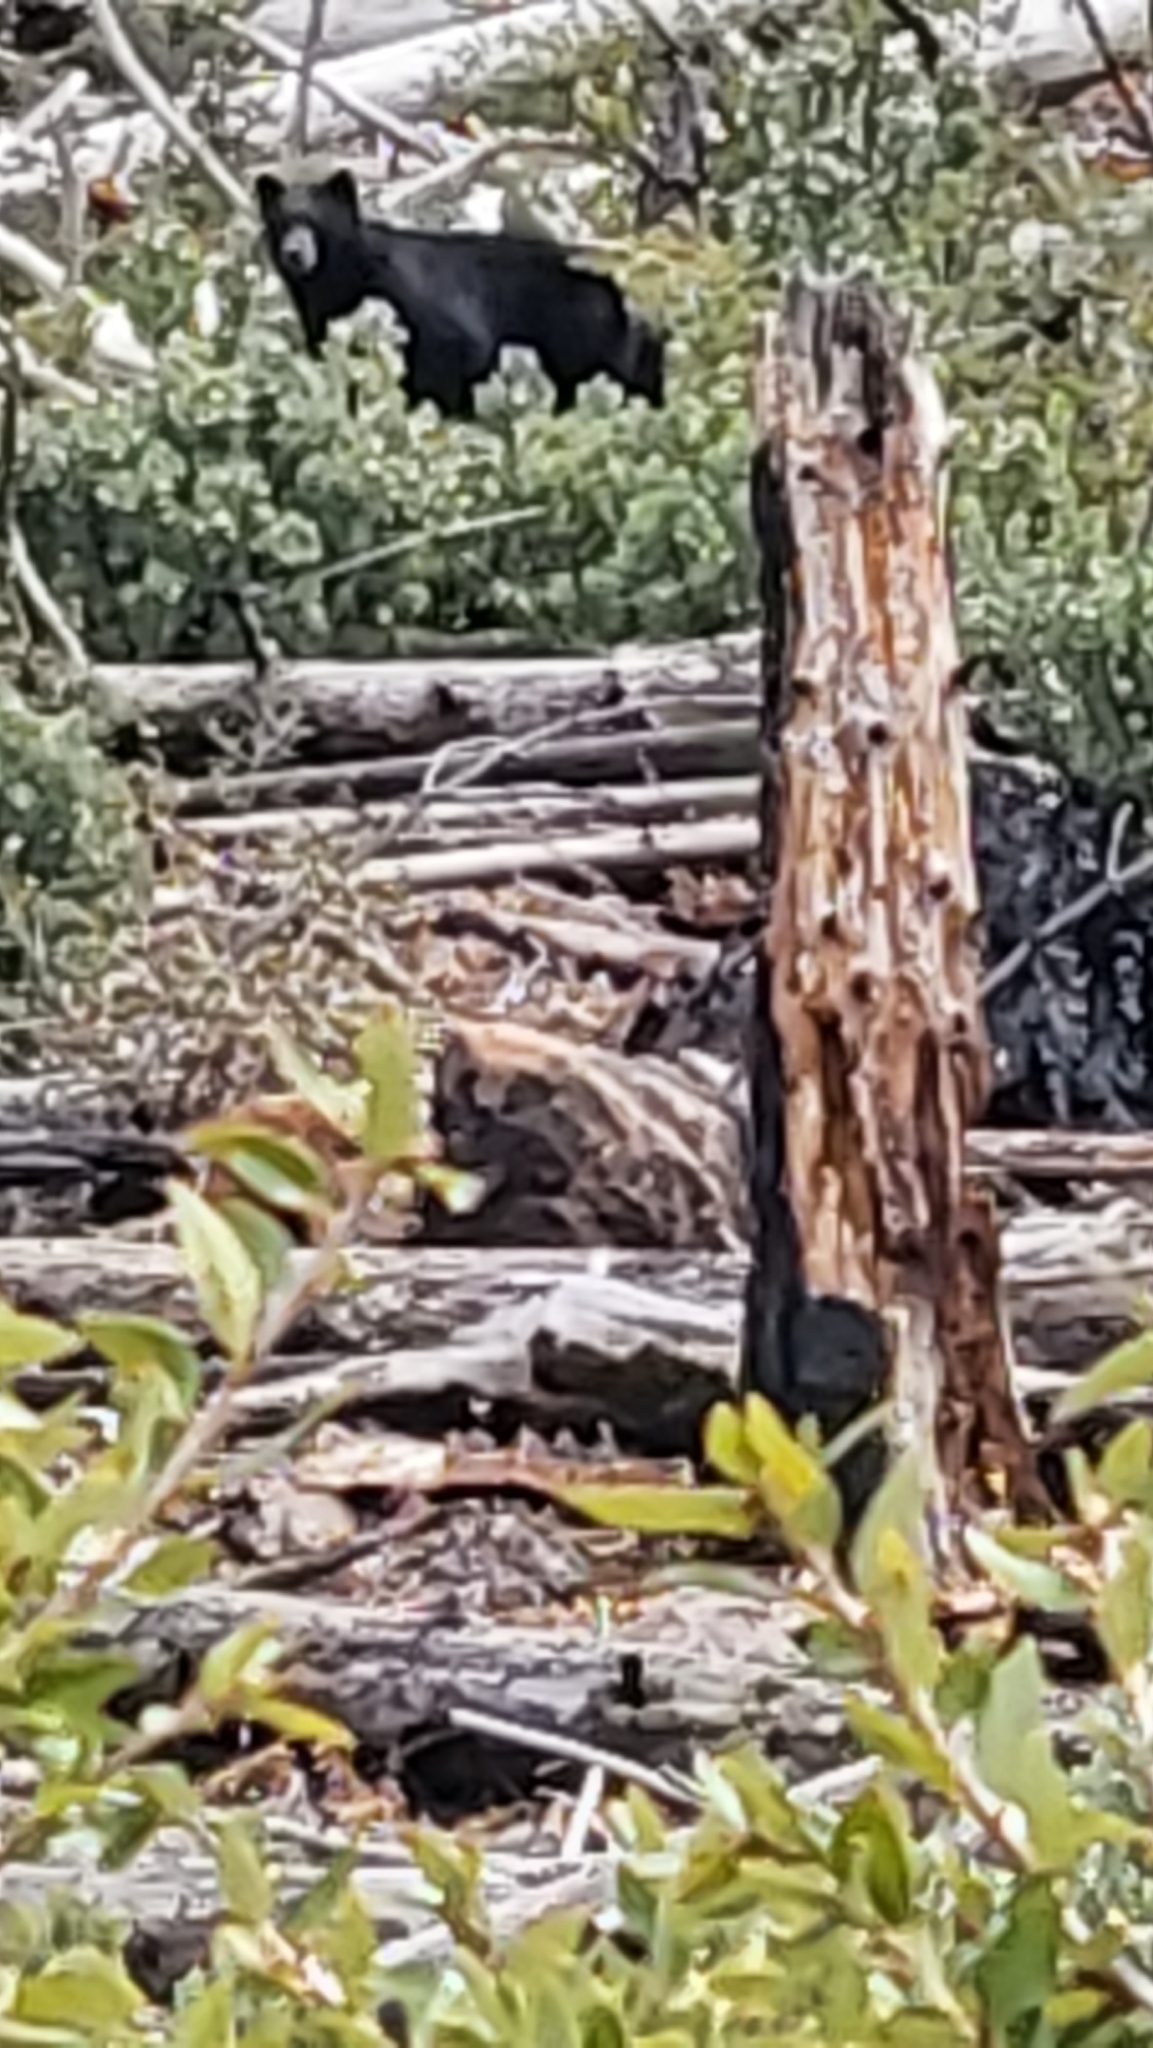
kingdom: Animalia
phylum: Chordata
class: Mammalia
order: Carnivora
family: Ursidae
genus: Ursus
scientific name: Ursus americanus
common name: American black bear
